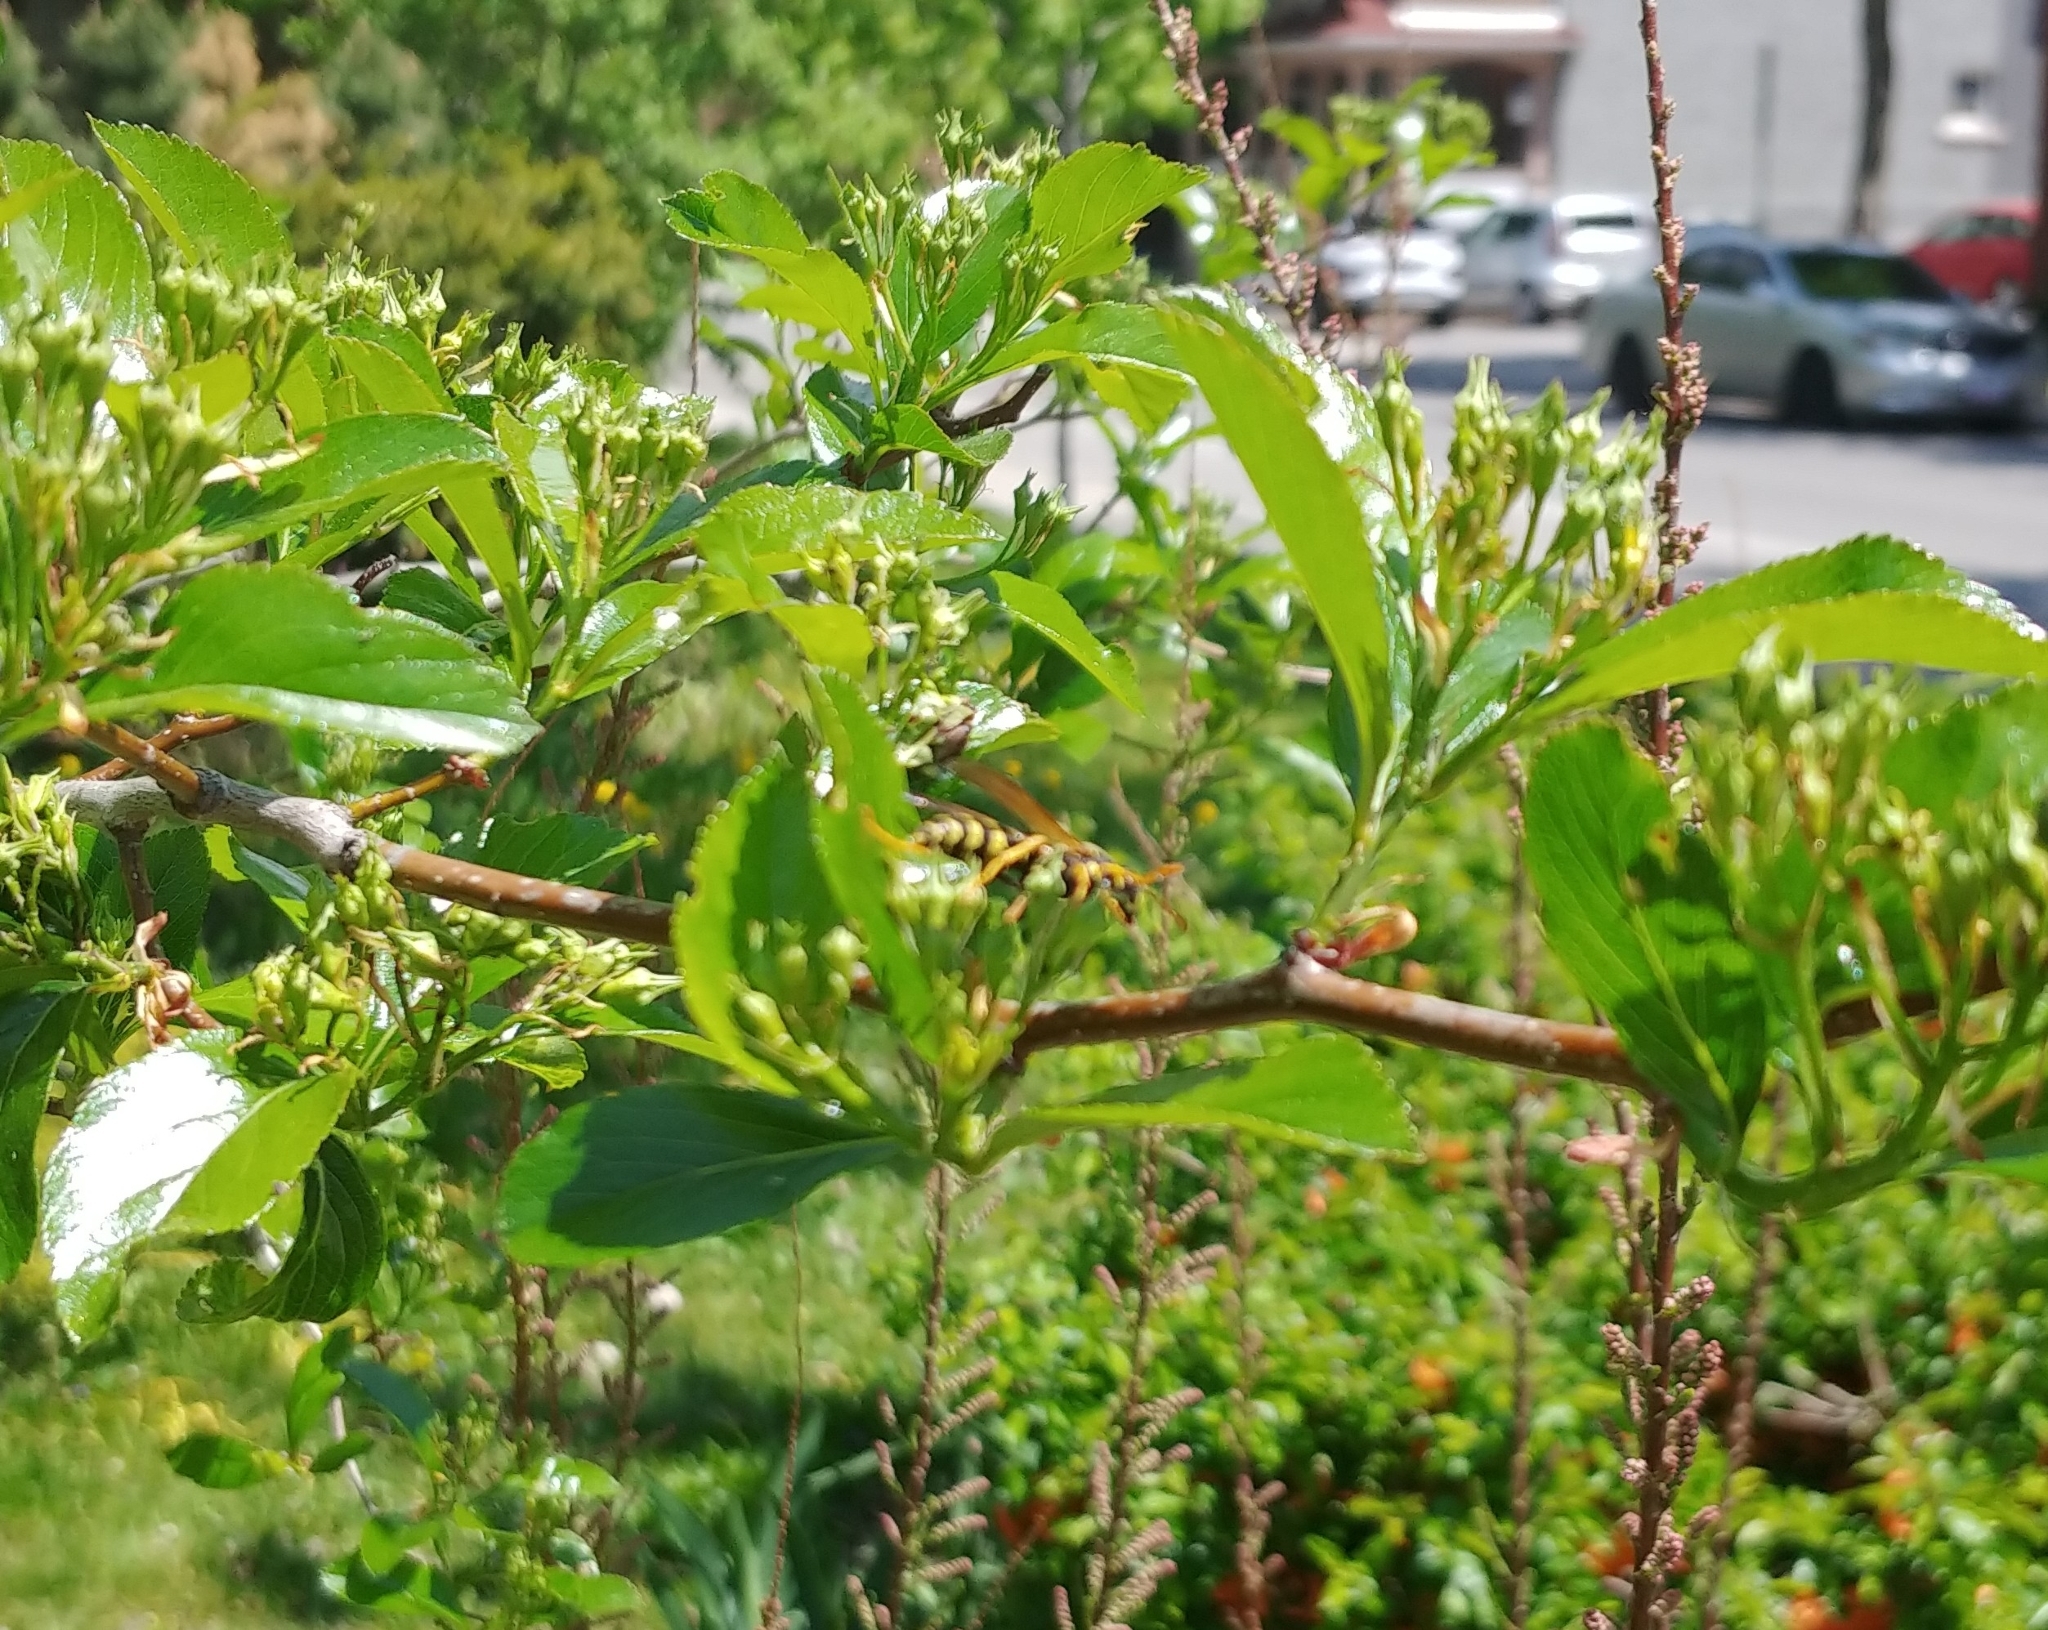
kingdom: Animalia
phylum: Arthropoda
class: Insecta
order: Hymenoptera
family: Eumenidae
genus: Polistes
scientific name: Polistes dominula
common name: Paper wasp
